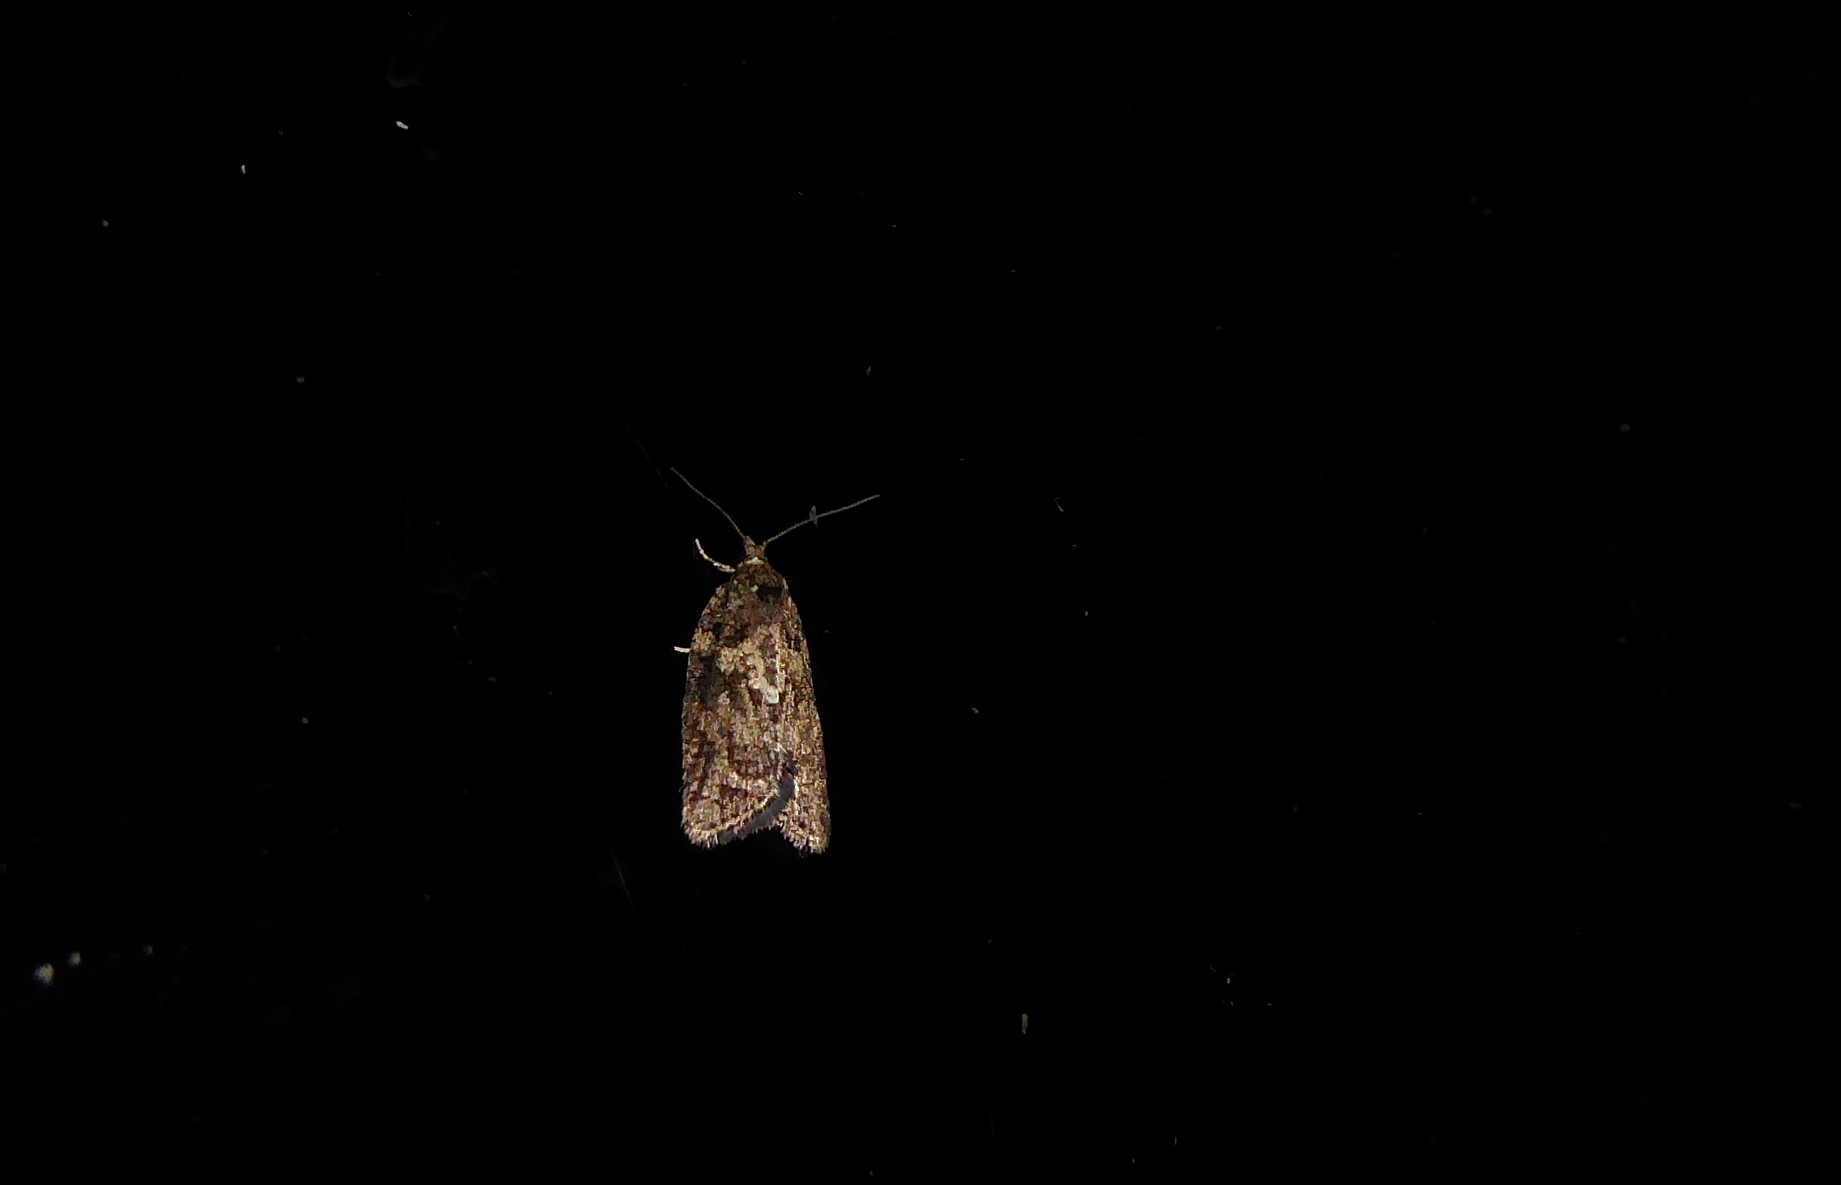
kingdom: Animalia
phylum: Arthropoda
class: Insecta
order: Lepidoptera
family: Tortricidae
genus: Capua
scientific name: Capua intractana
